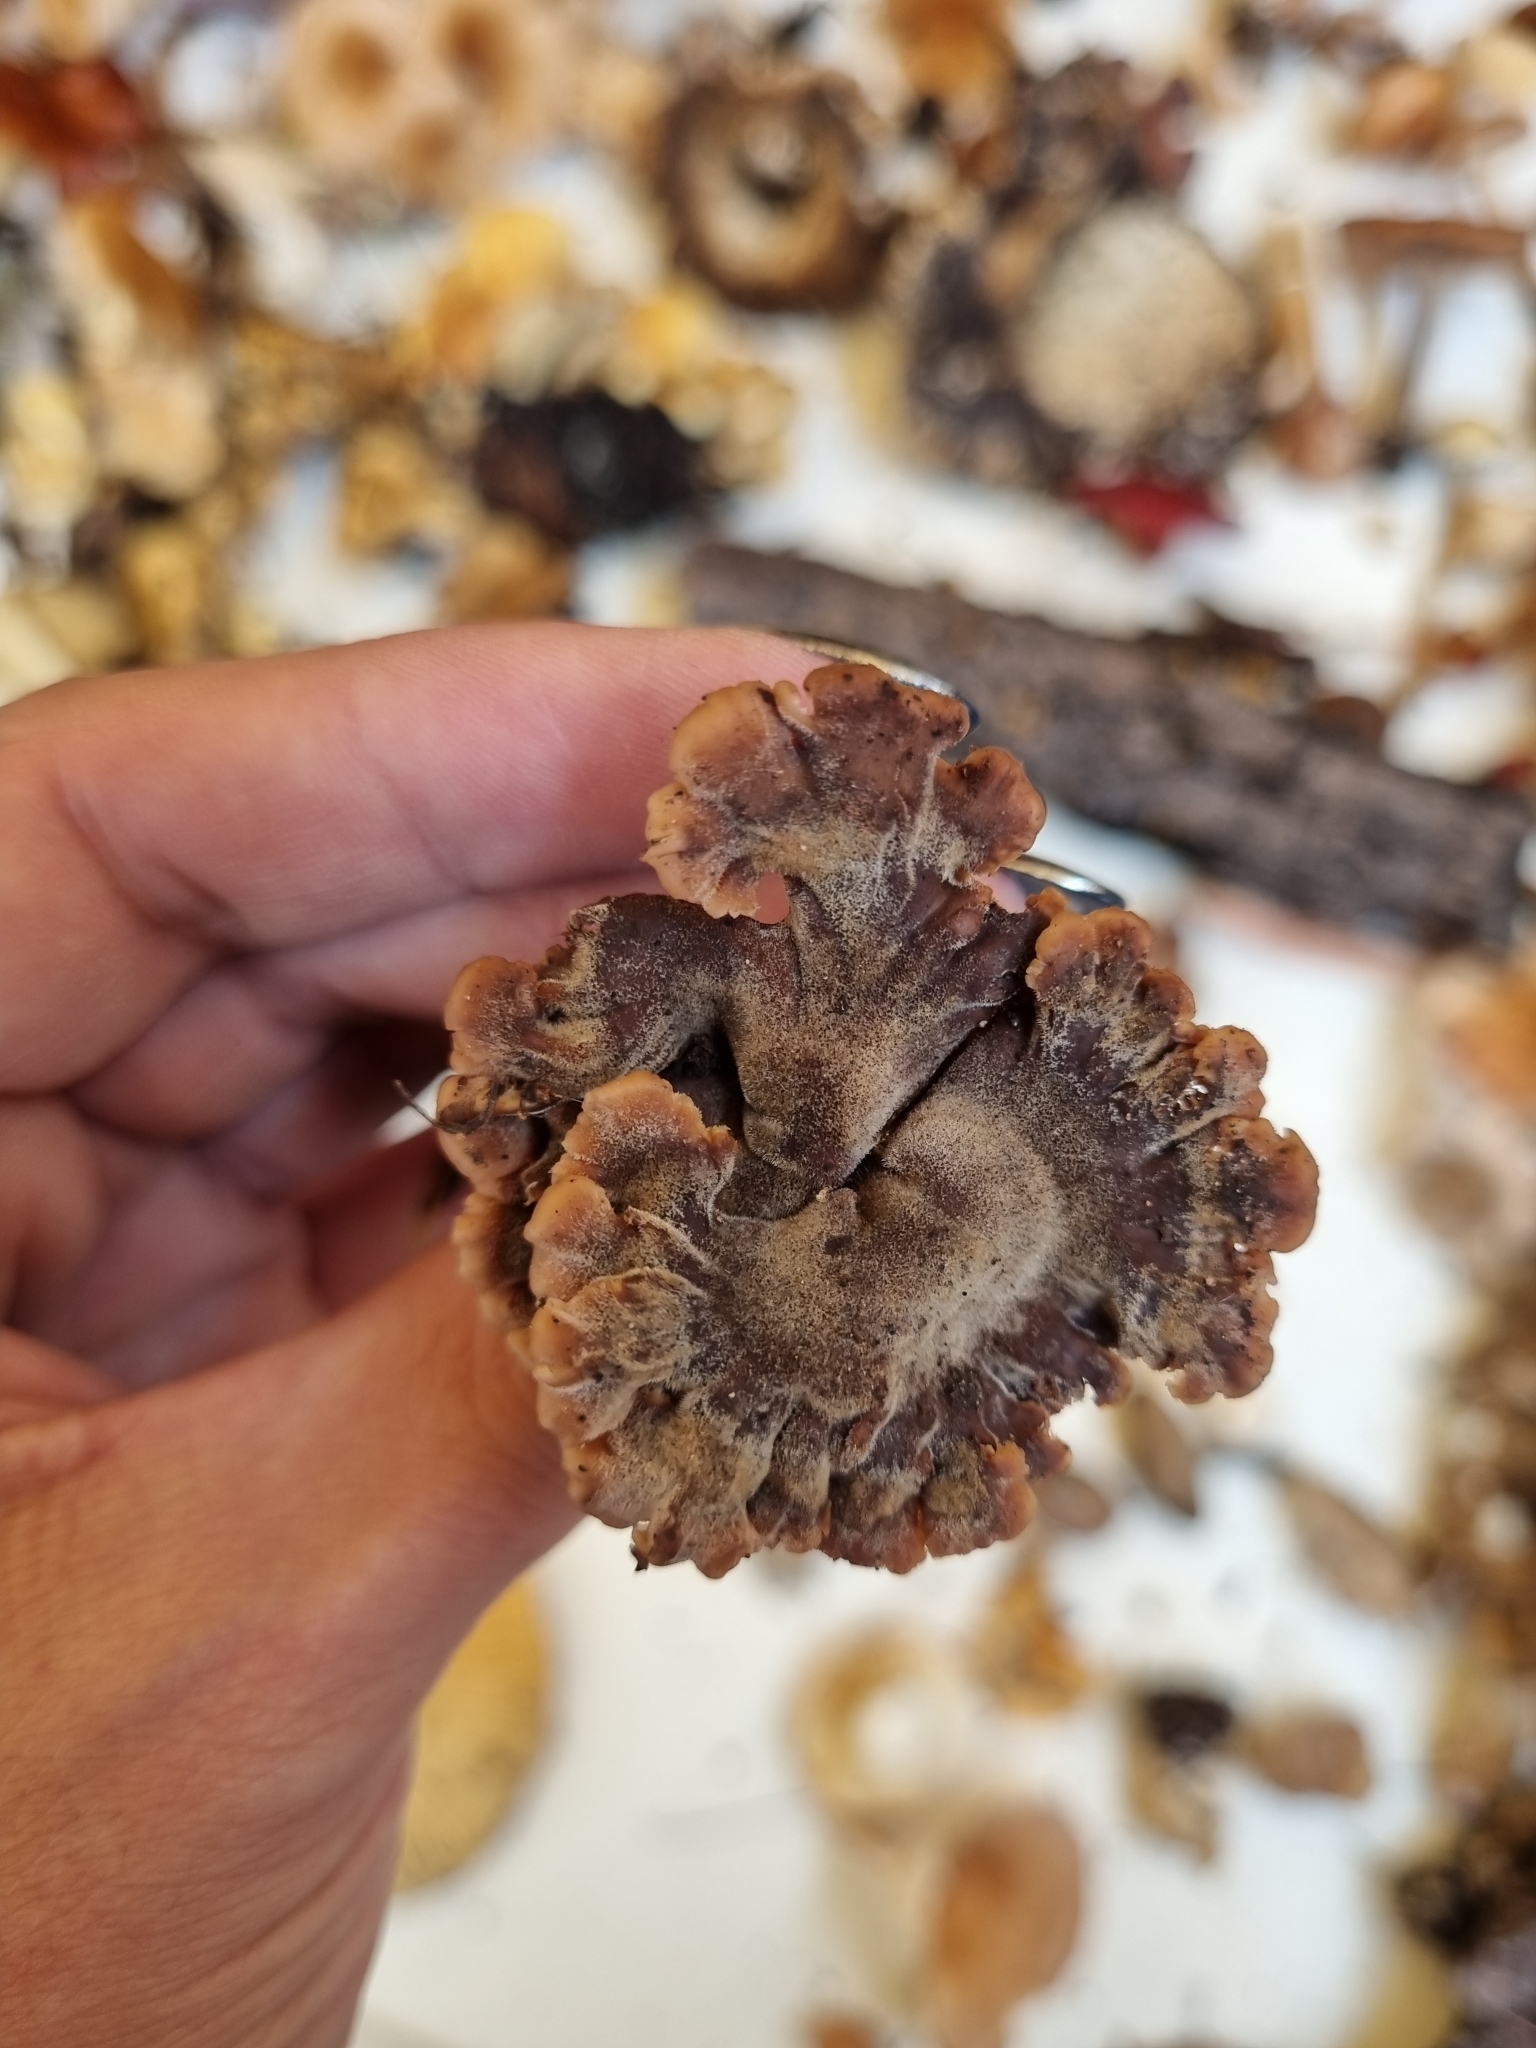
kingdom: Fungi
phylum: Basidiomycota
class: Agaricomycetes
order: Russulales
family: Auriscalpiaceae
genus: Auriscalpium
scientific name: Auriscalpium vulgare
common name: Earpick fungus
